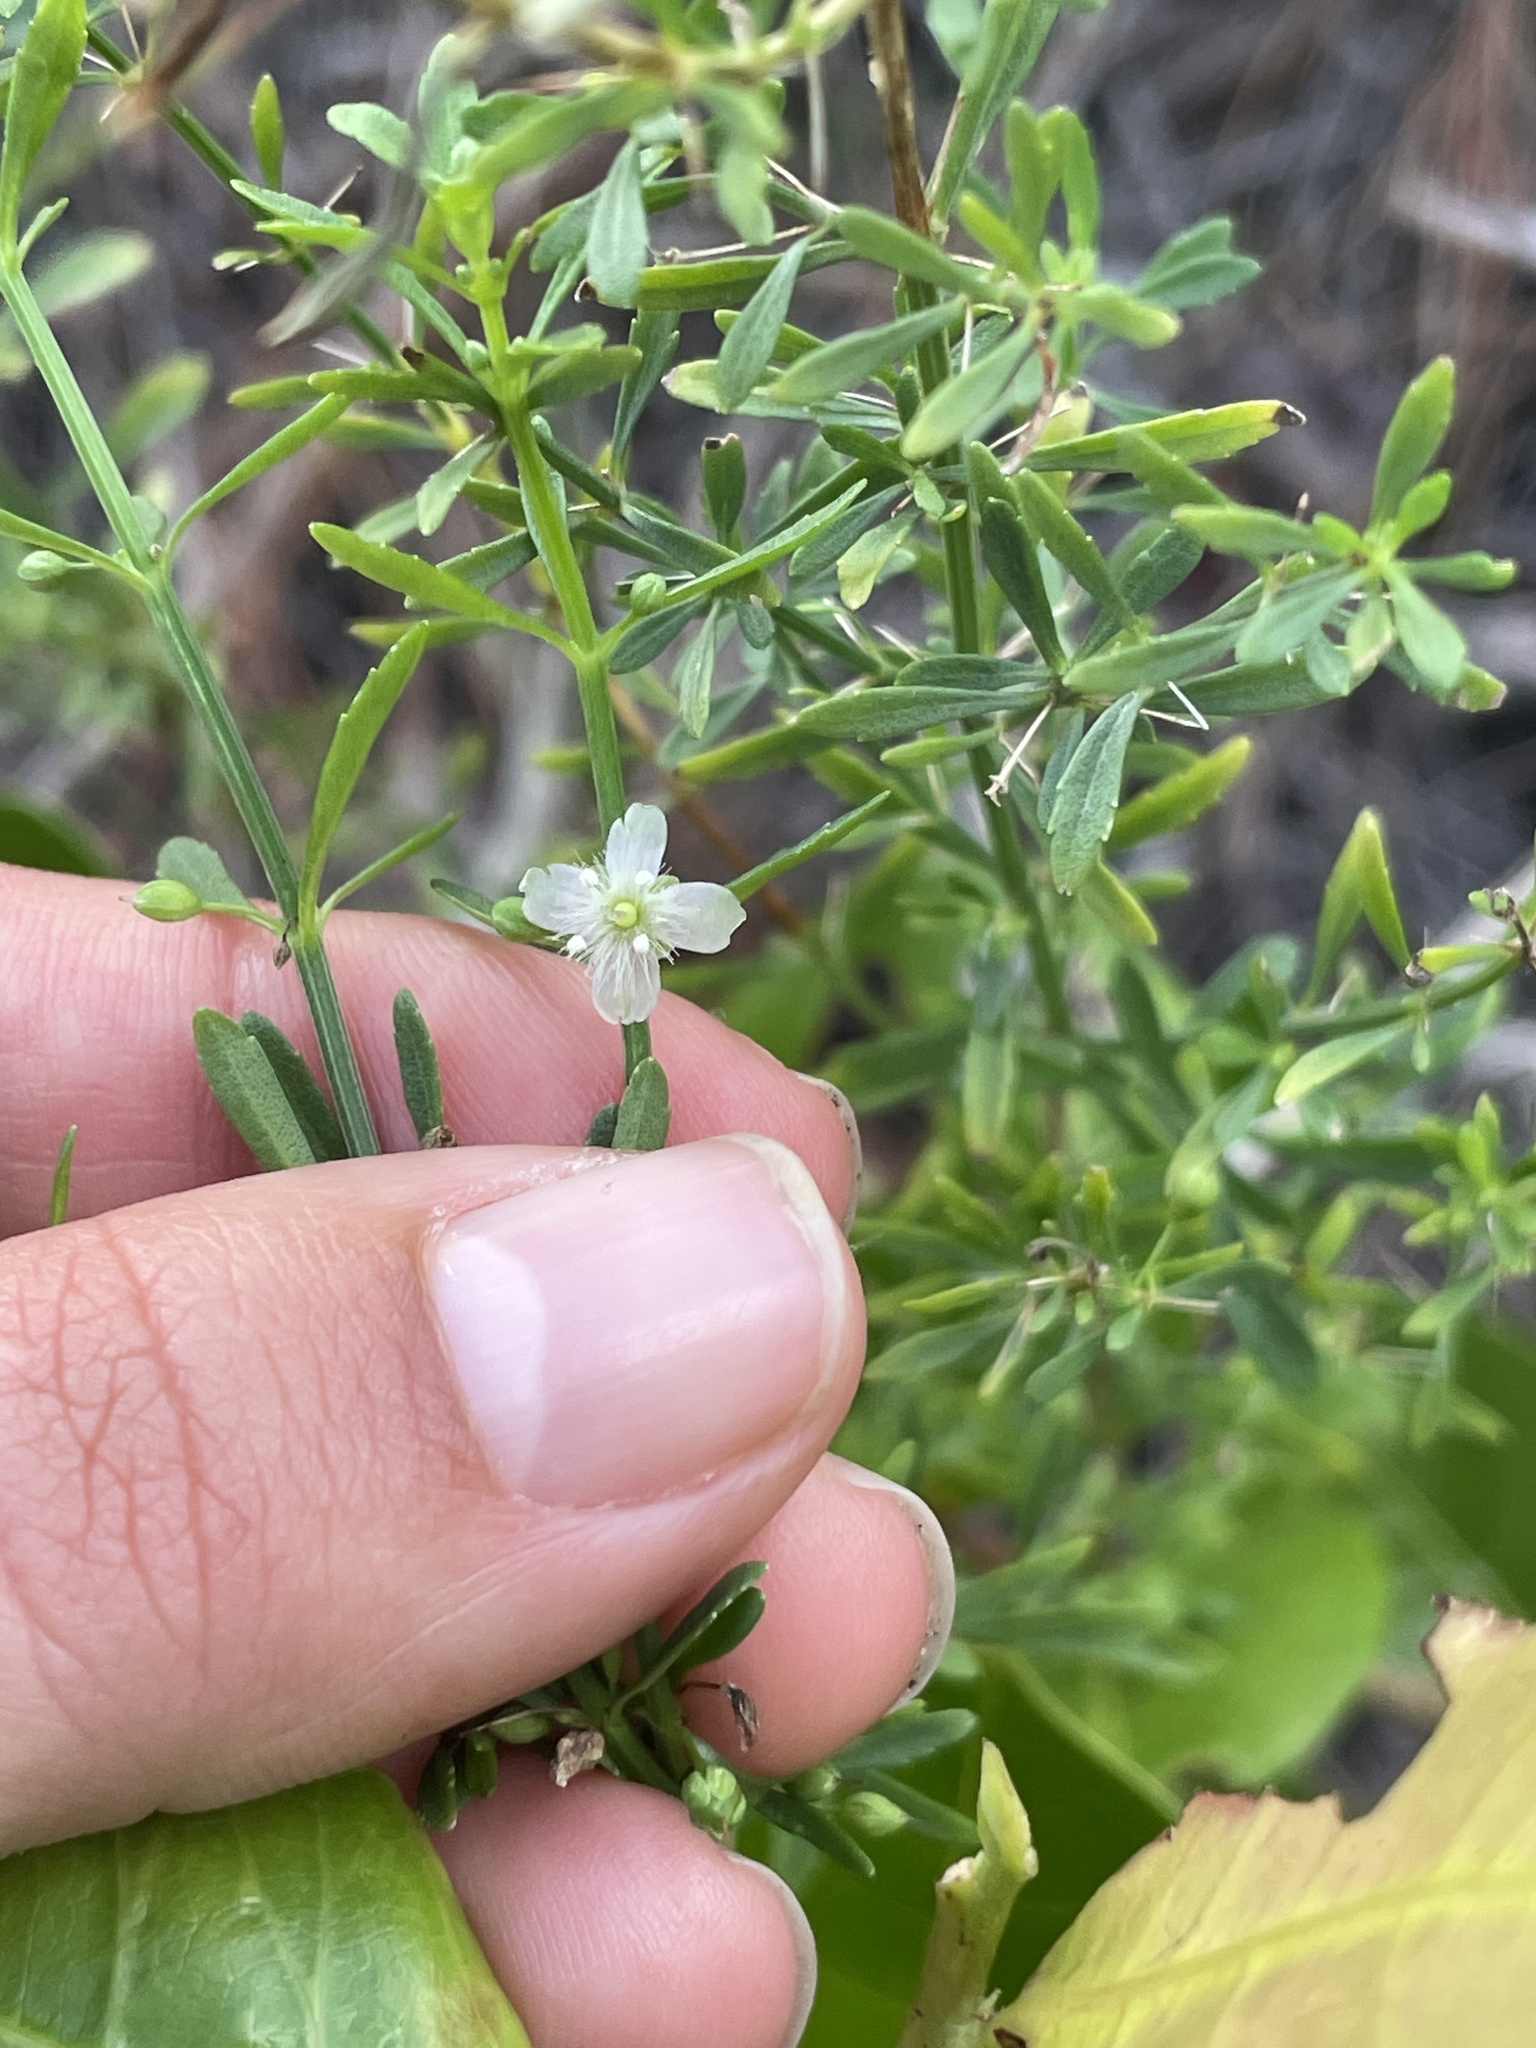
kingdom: Plantae
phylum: Tracheophyta
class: Magnoliopsida
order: Lamiales
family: Plantaginaceae
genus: Scoparia
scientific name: Scoparia dulcis
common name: Scoparia-weed
